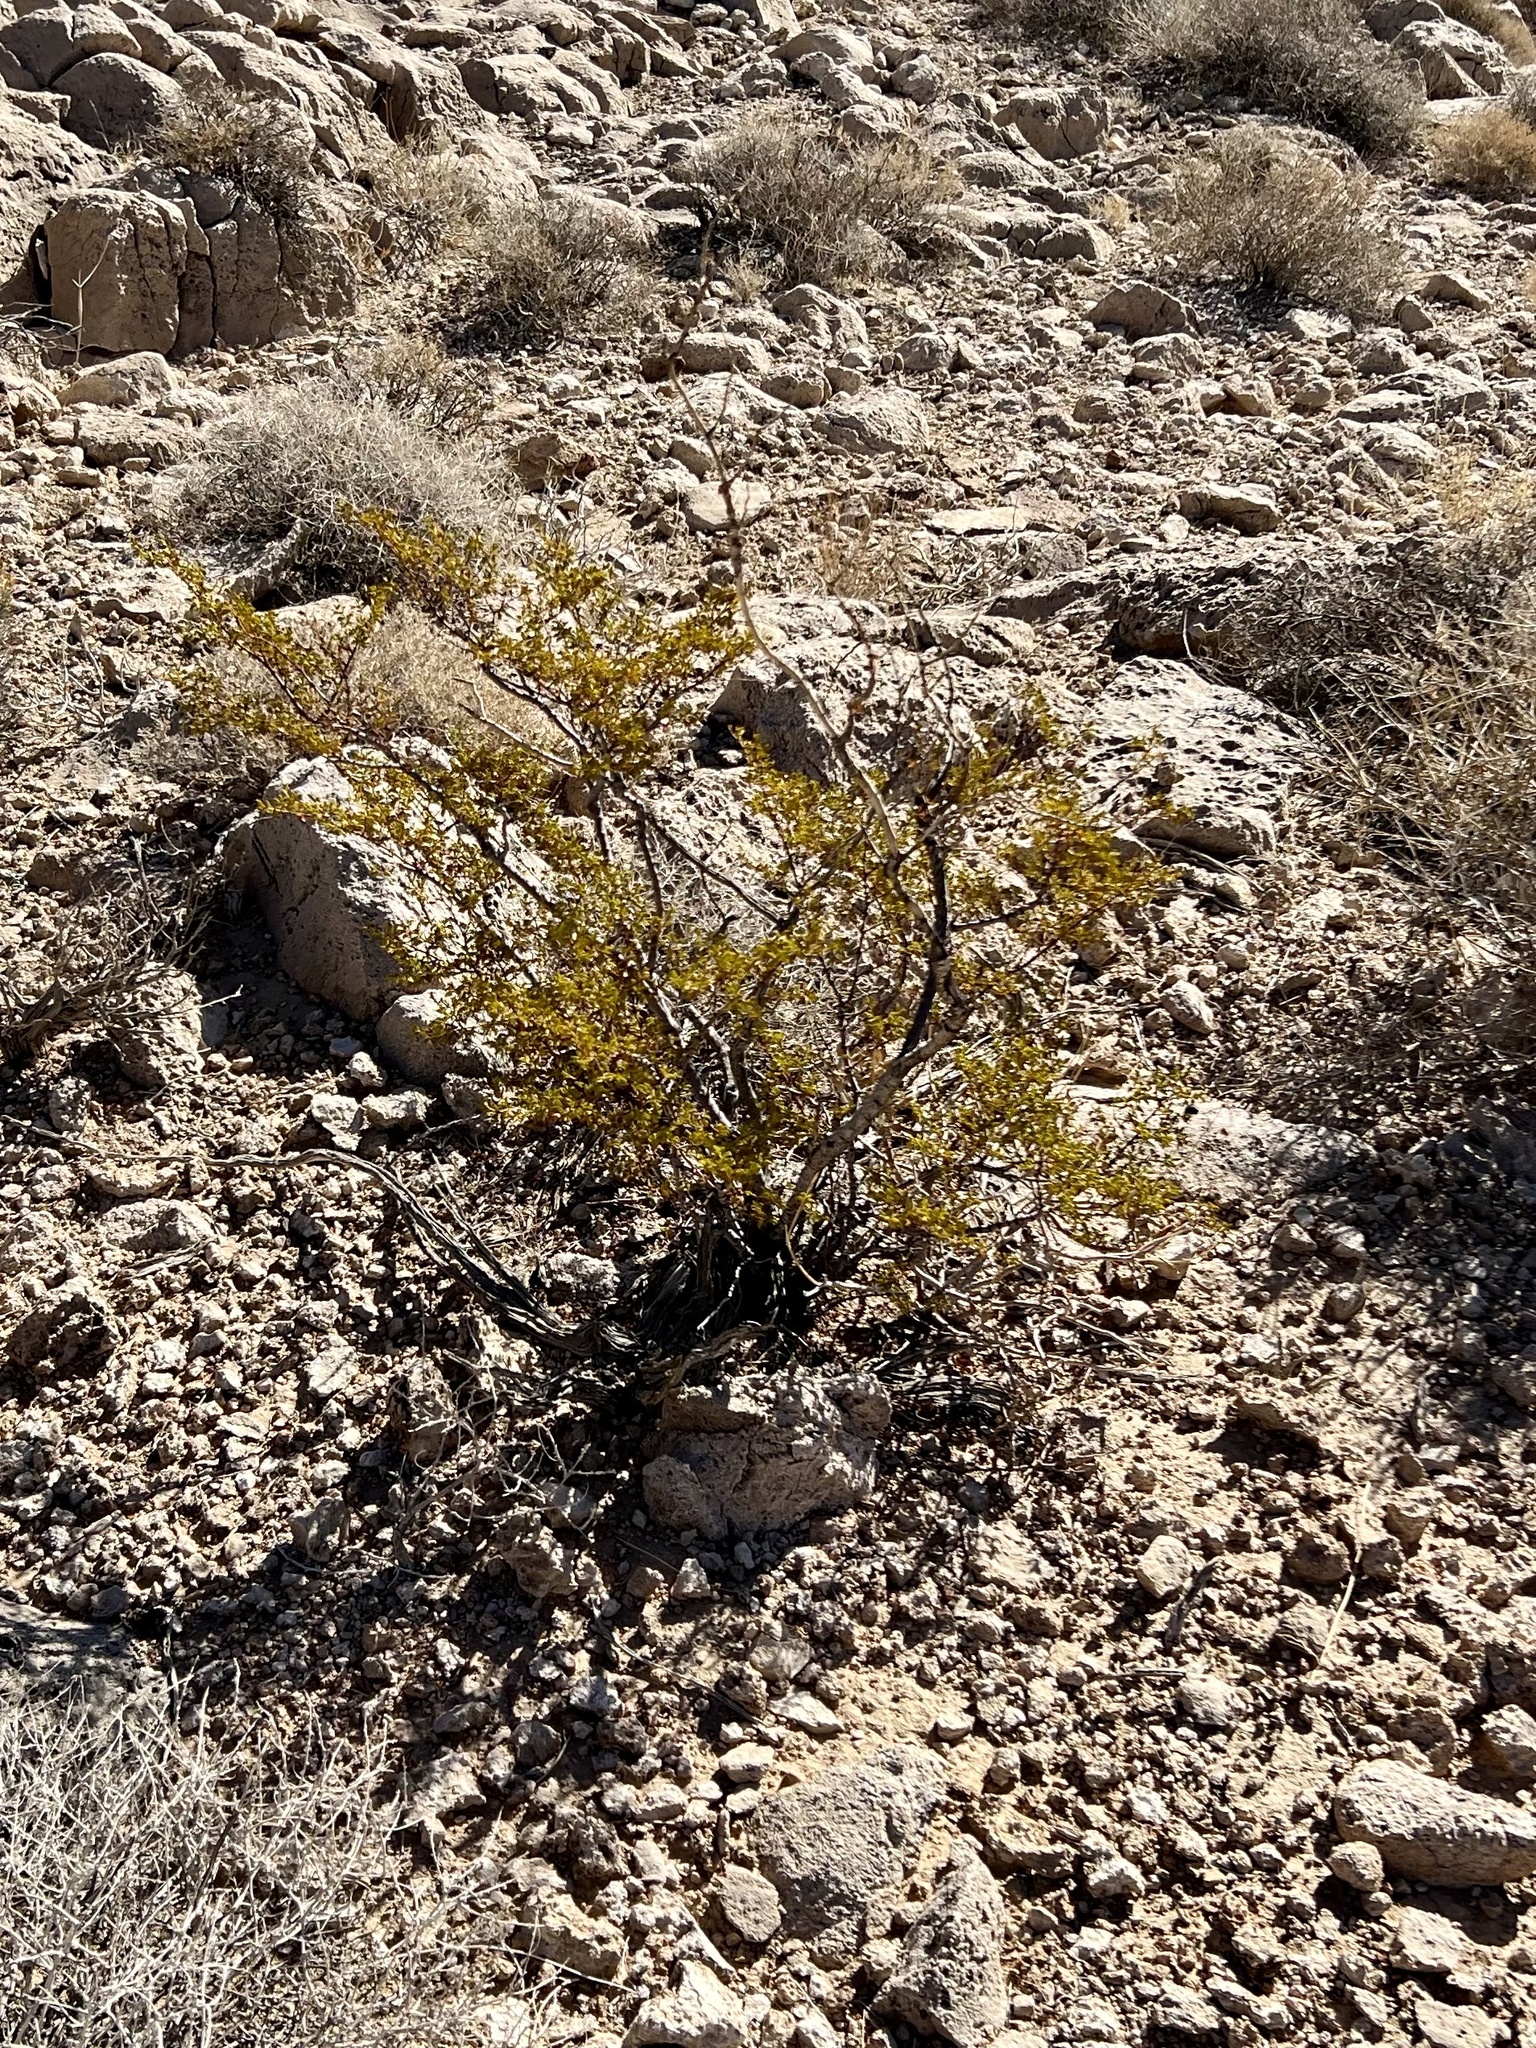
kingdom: Plantae
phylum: Tracheophyta
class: Magnoliopsida
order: Zygophyllales
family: Zygophyllaceae
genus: Larrea
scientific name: Larrea tridentata
